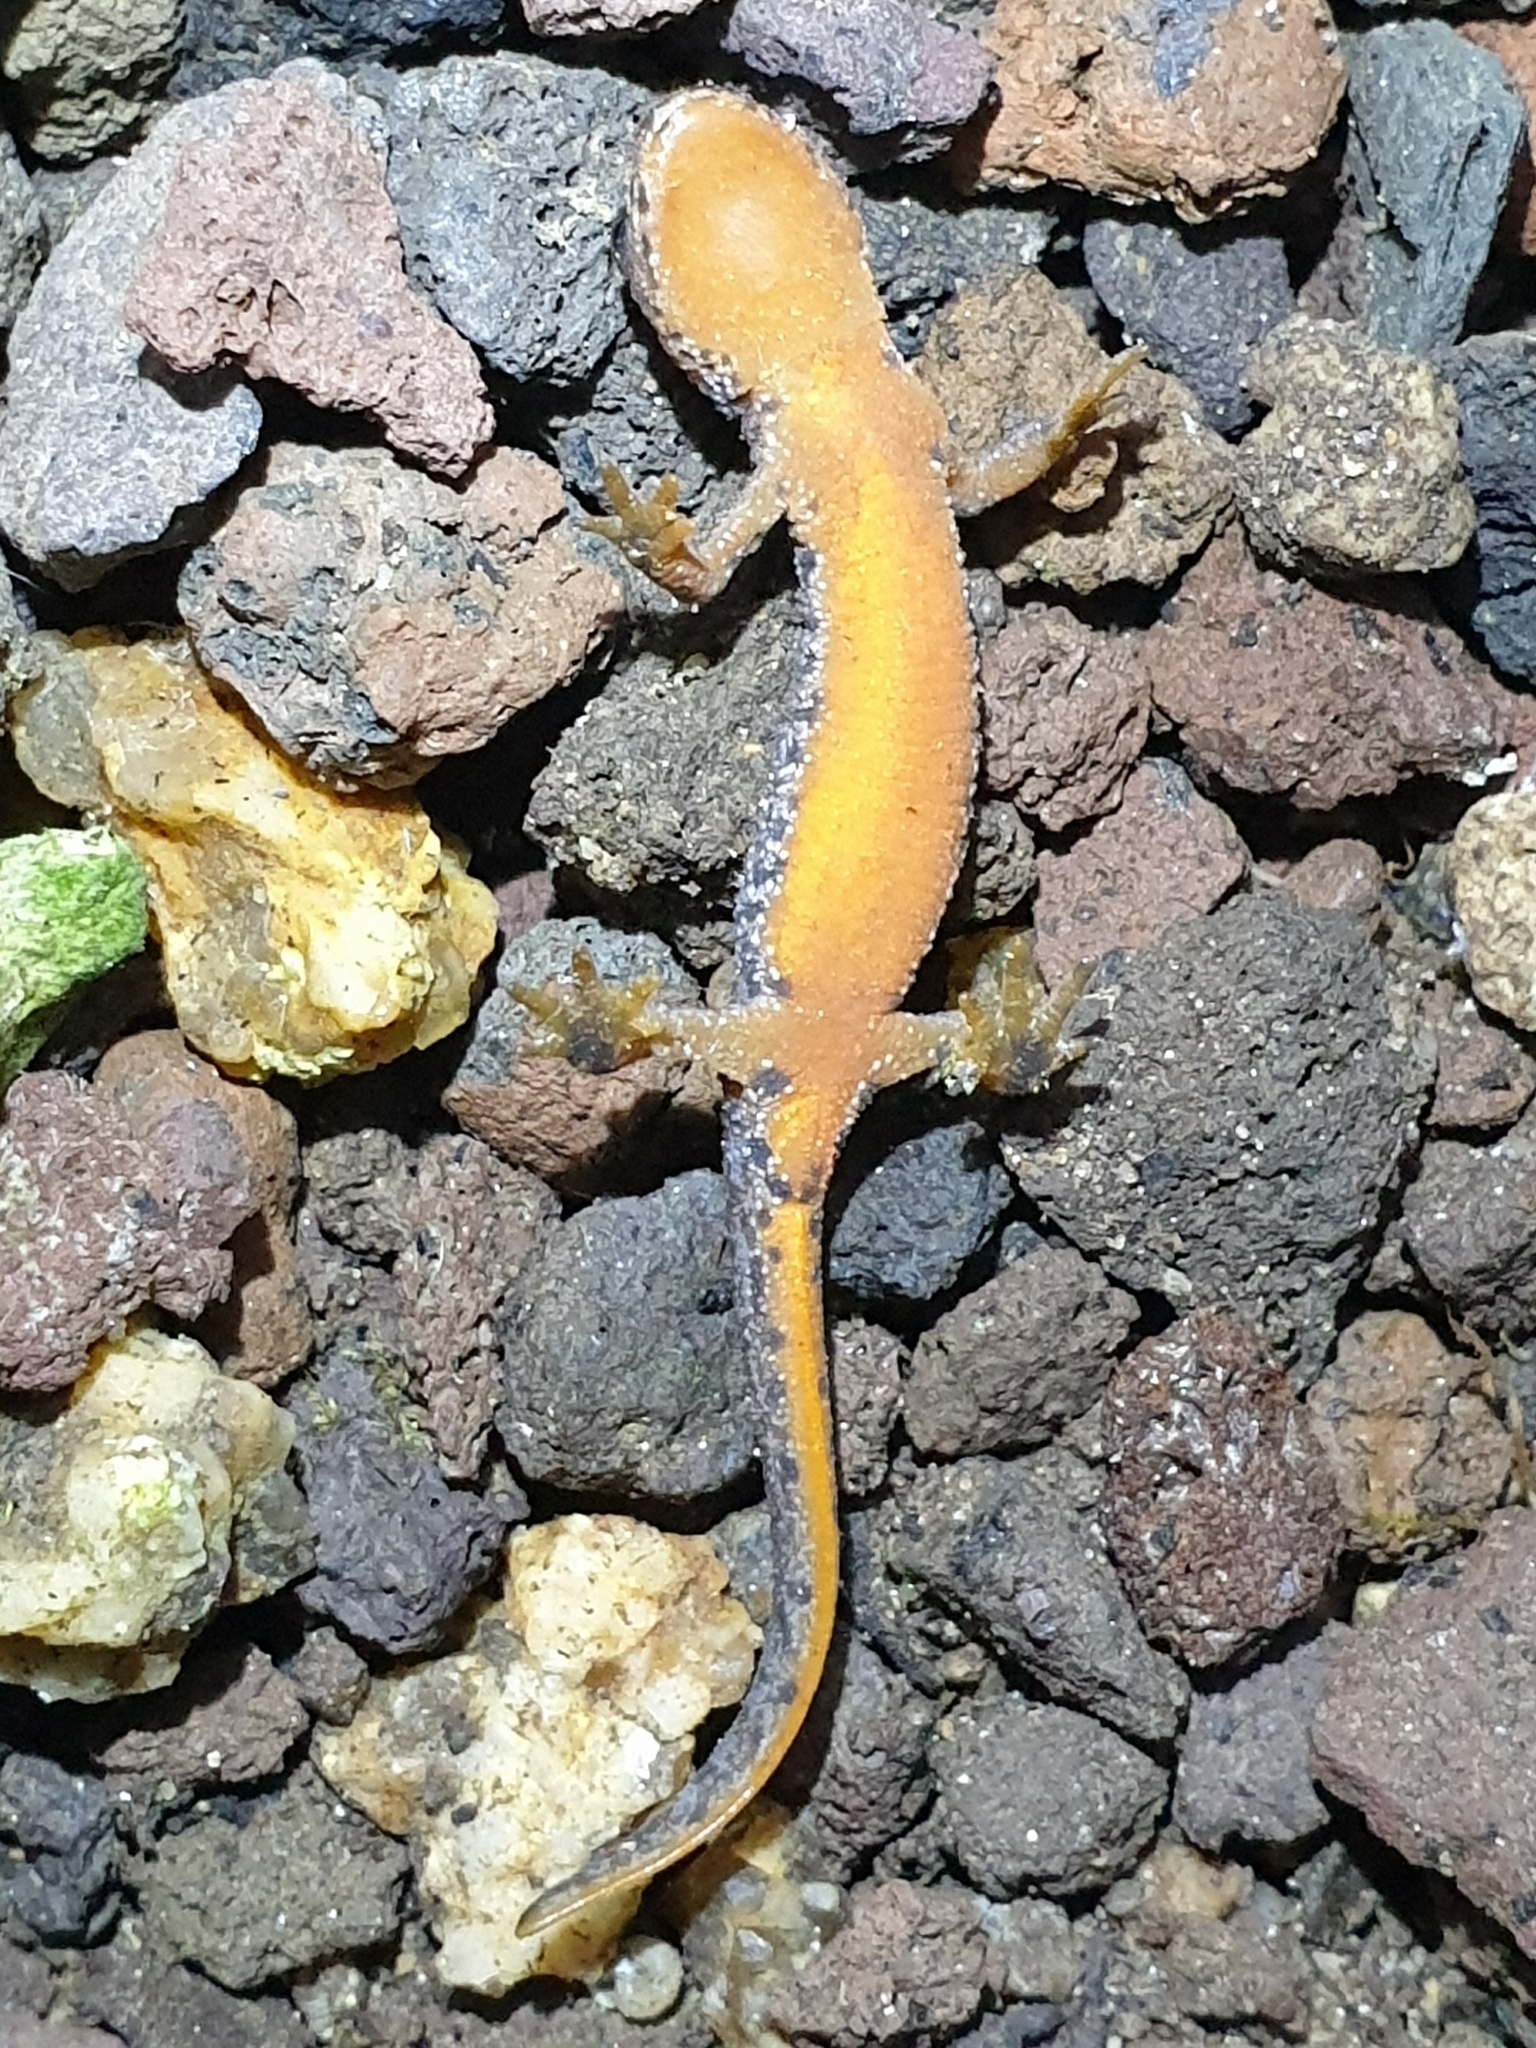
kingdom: Animalia
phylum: Chordata
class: Amphibia
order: Caudata
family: Salamandridae
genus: Ichthyosaura
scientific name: Ichthyosaura alpestris
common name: Alpine newt
